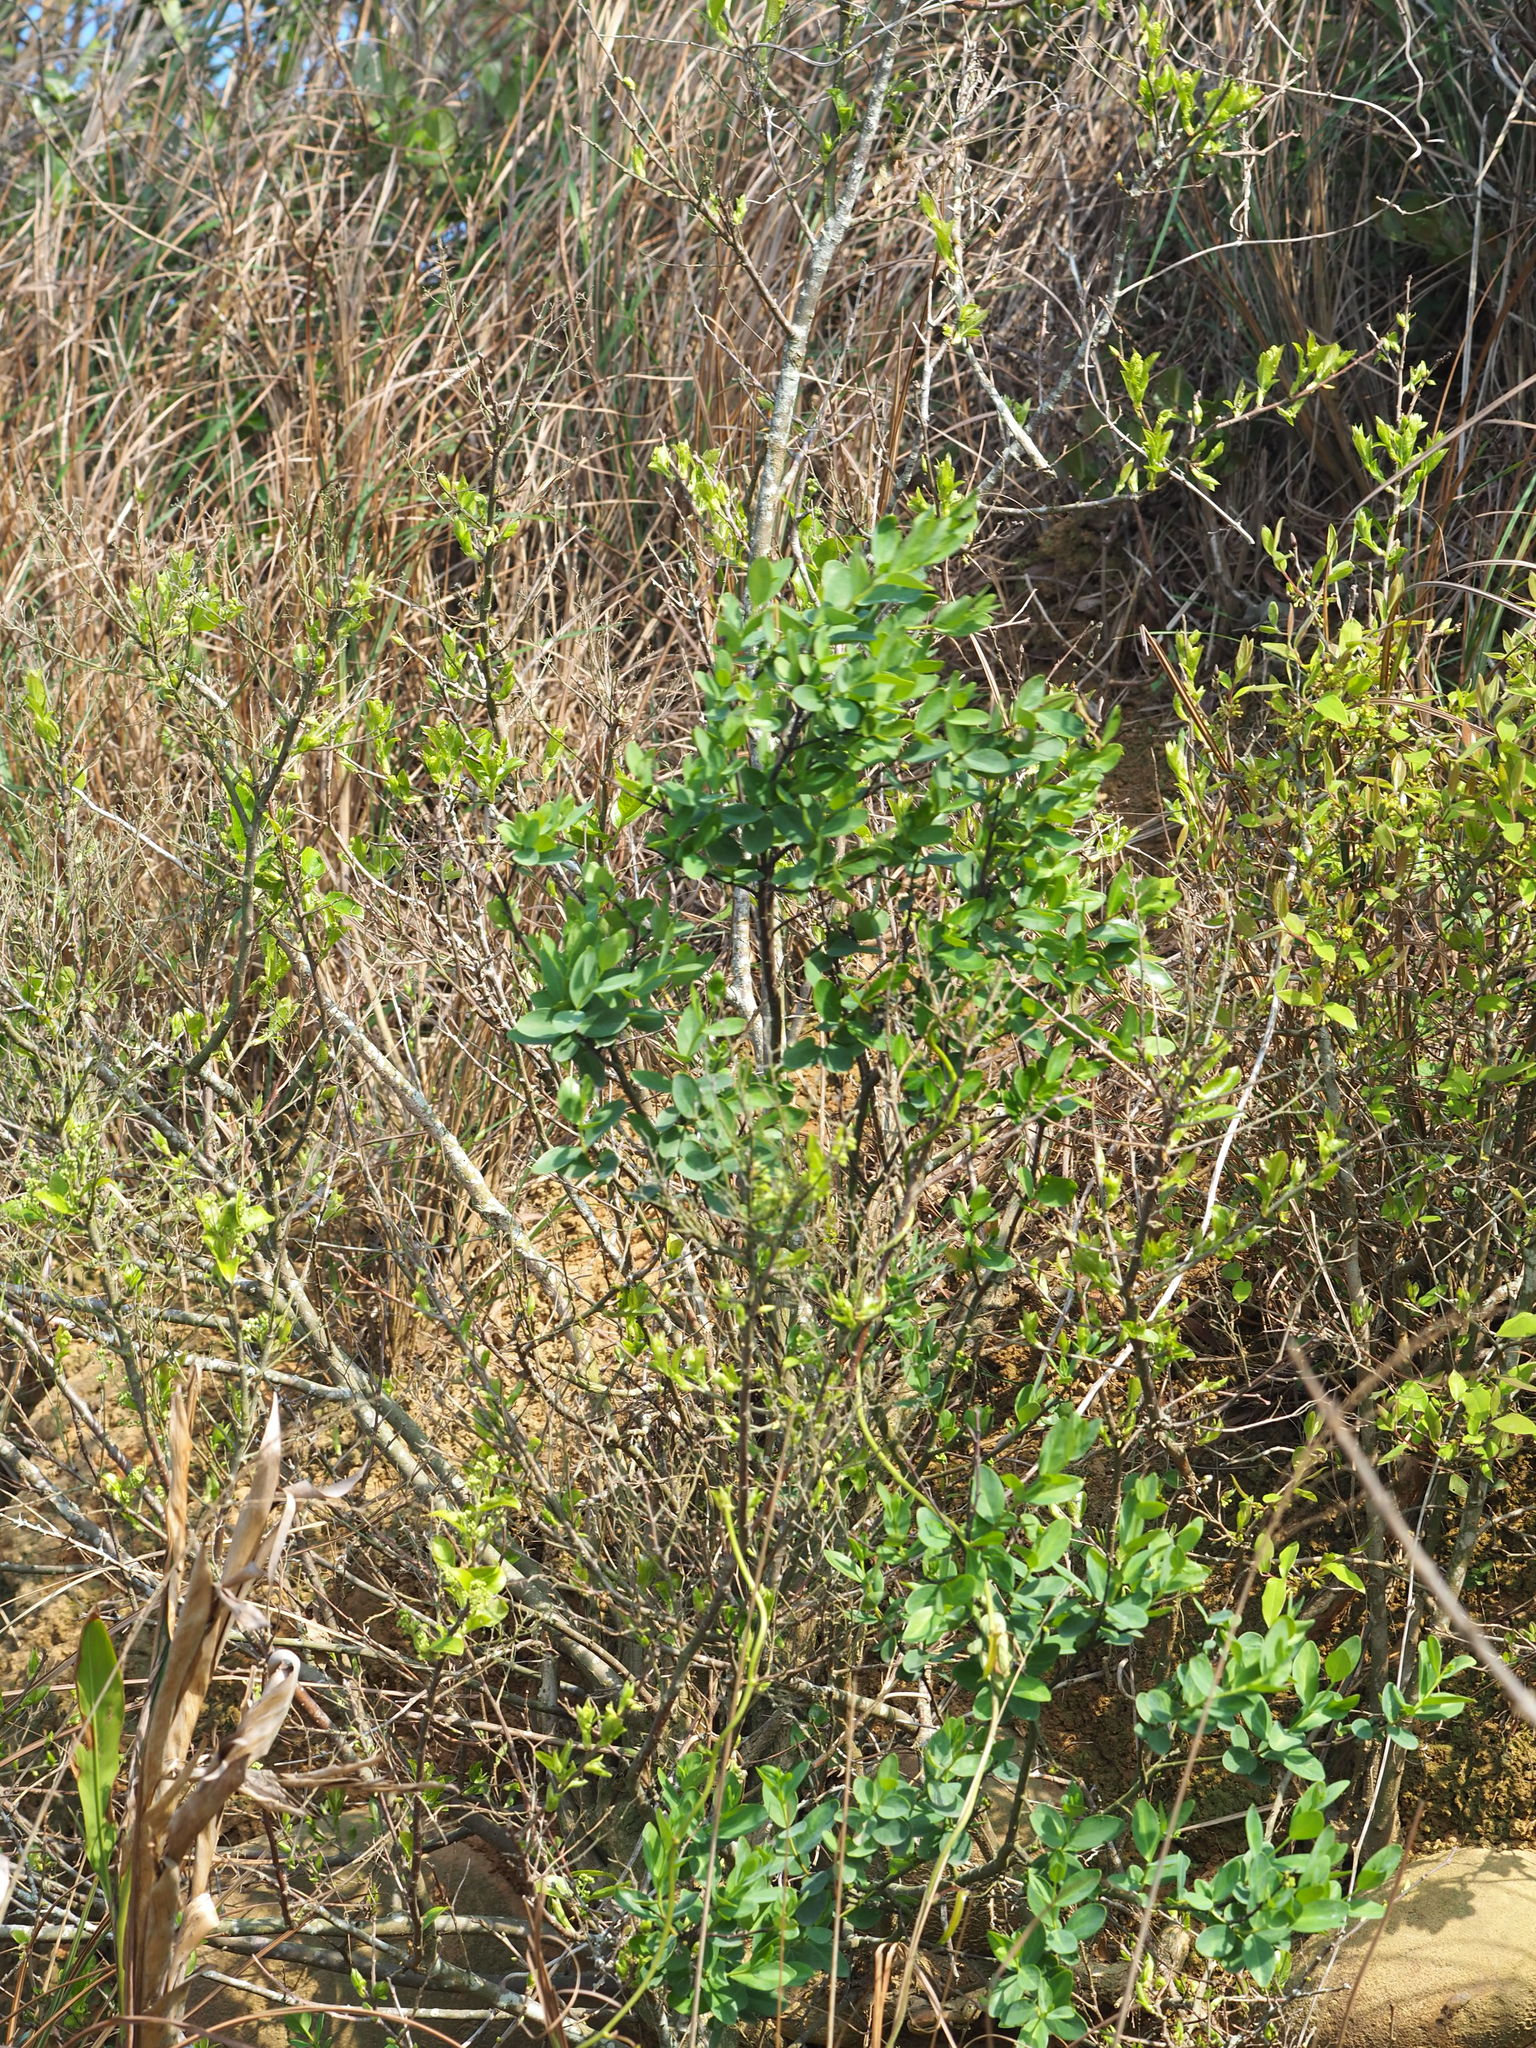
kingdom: Plantae
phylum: Tracheophyta
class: Magnoliopsida
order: Malvales
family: Thymelaeaceae
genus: Wikstroemia
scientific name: Wikstroemia indica
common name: Tiebush
